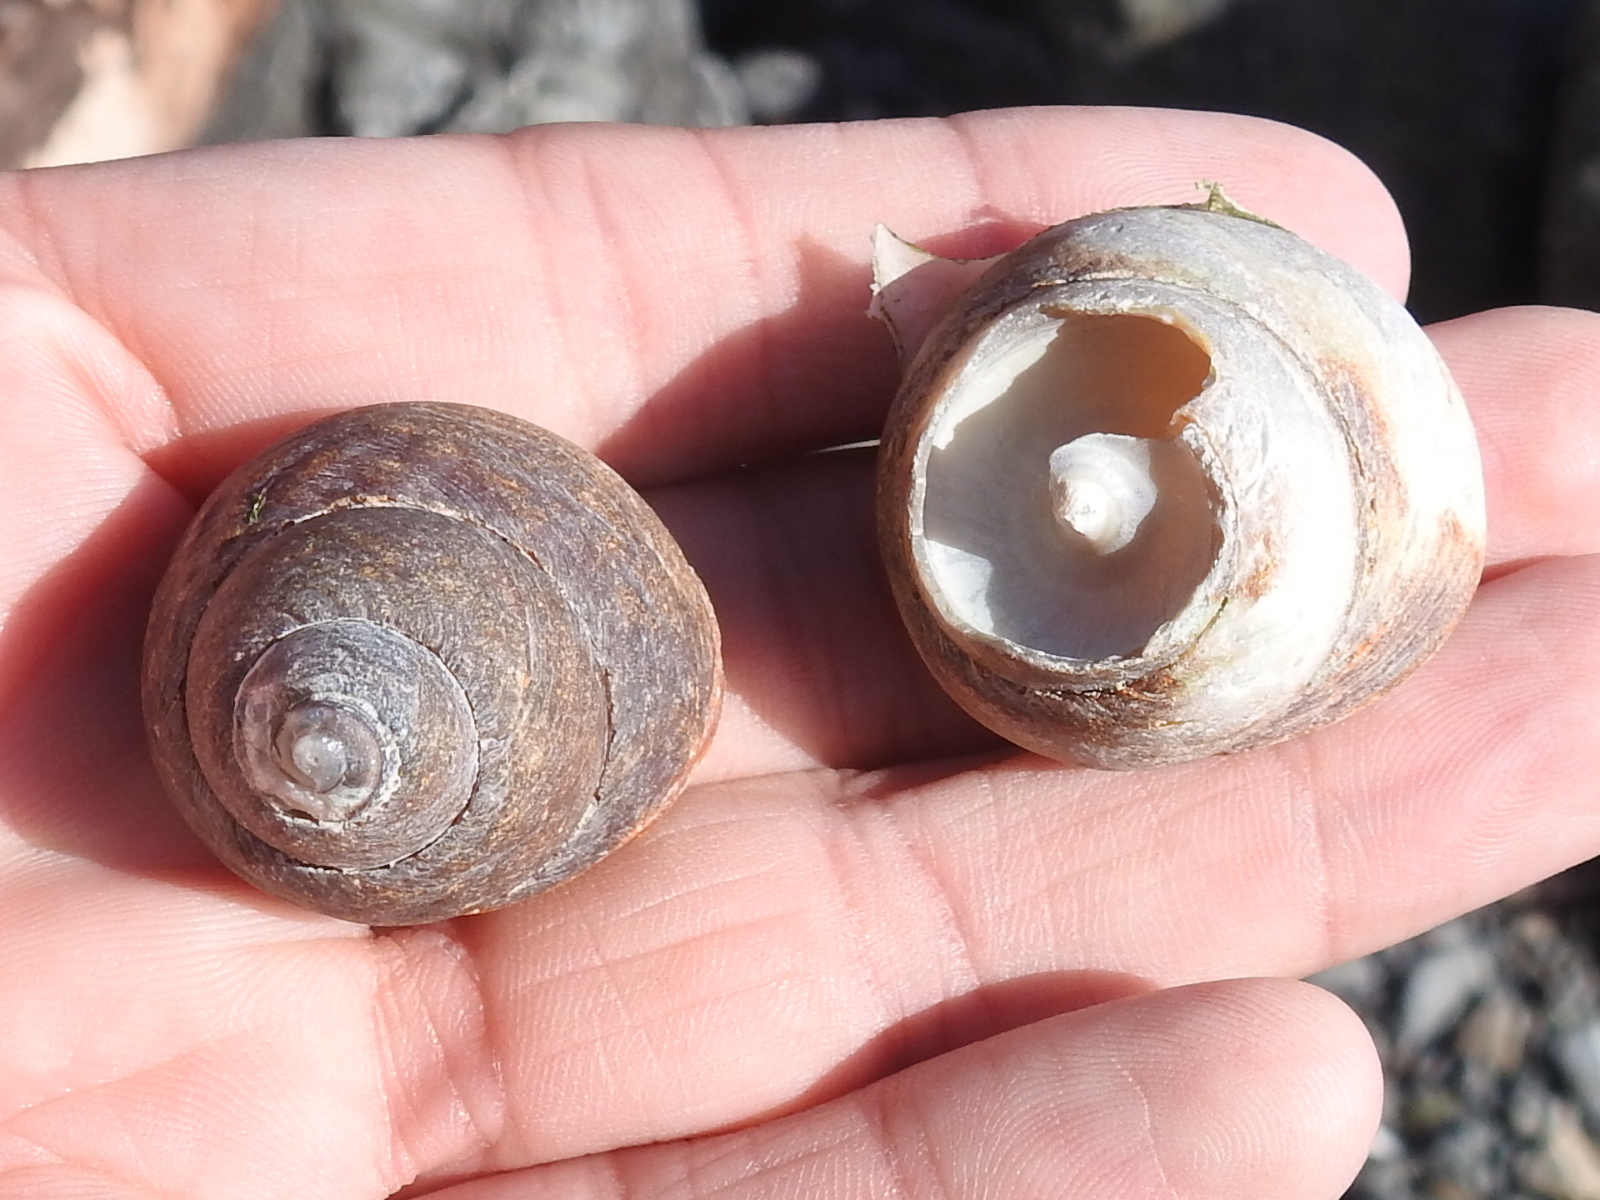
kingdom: Animalia
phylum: Mollusca
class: Gastropoda
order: Trochida
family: Tegulidae
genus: Tegula
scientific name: Tegula brunnea
